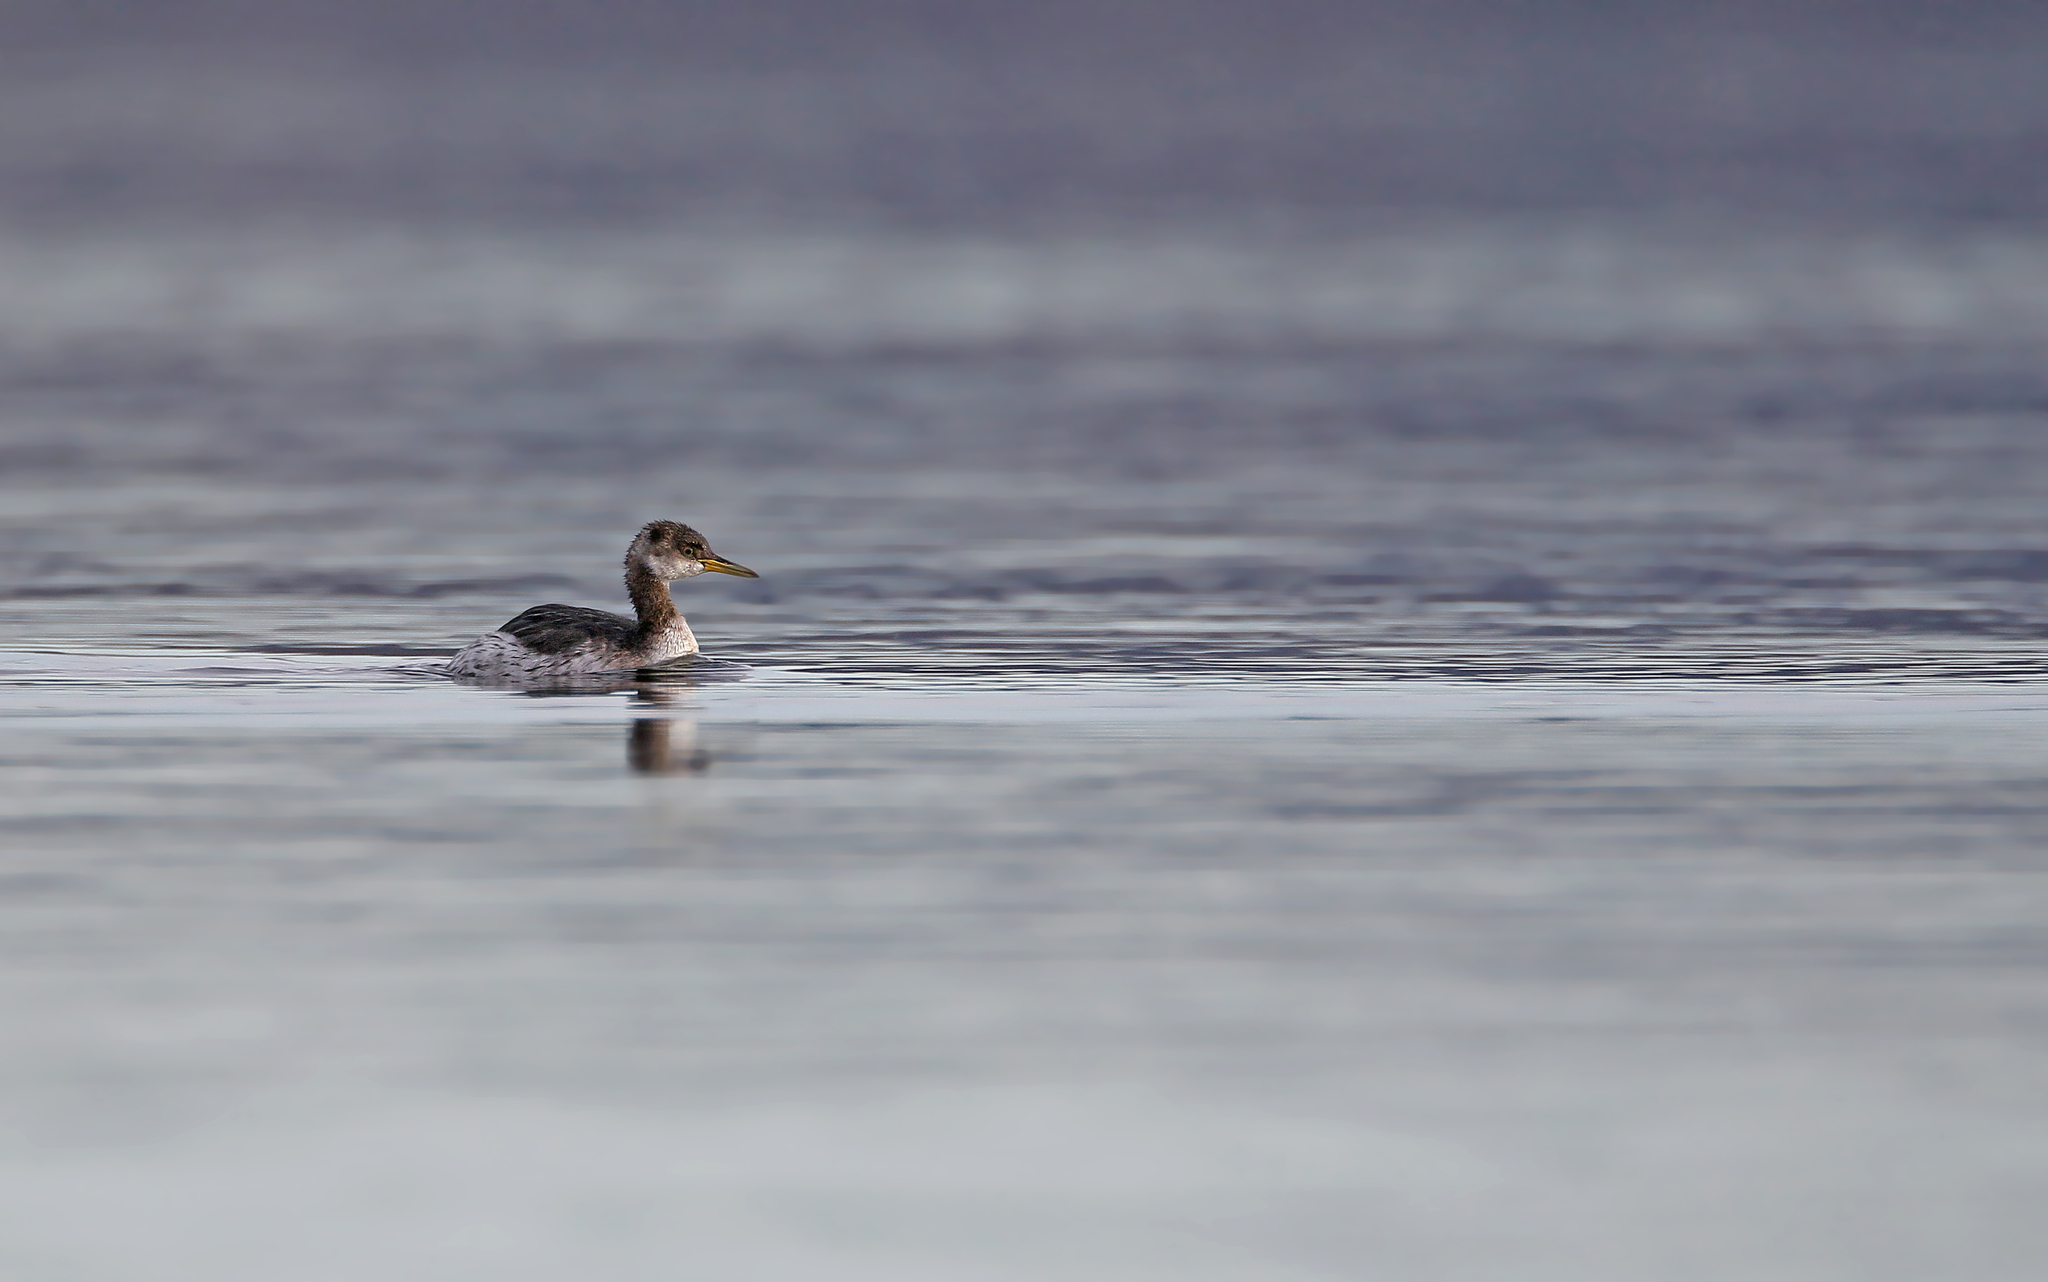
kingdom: Animalia
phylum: Chordata
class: Aves
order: Podicipediformes
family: Podicipedidae
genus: Podiceps
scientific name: Podiceps grisegena
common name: Red-necked grebe
